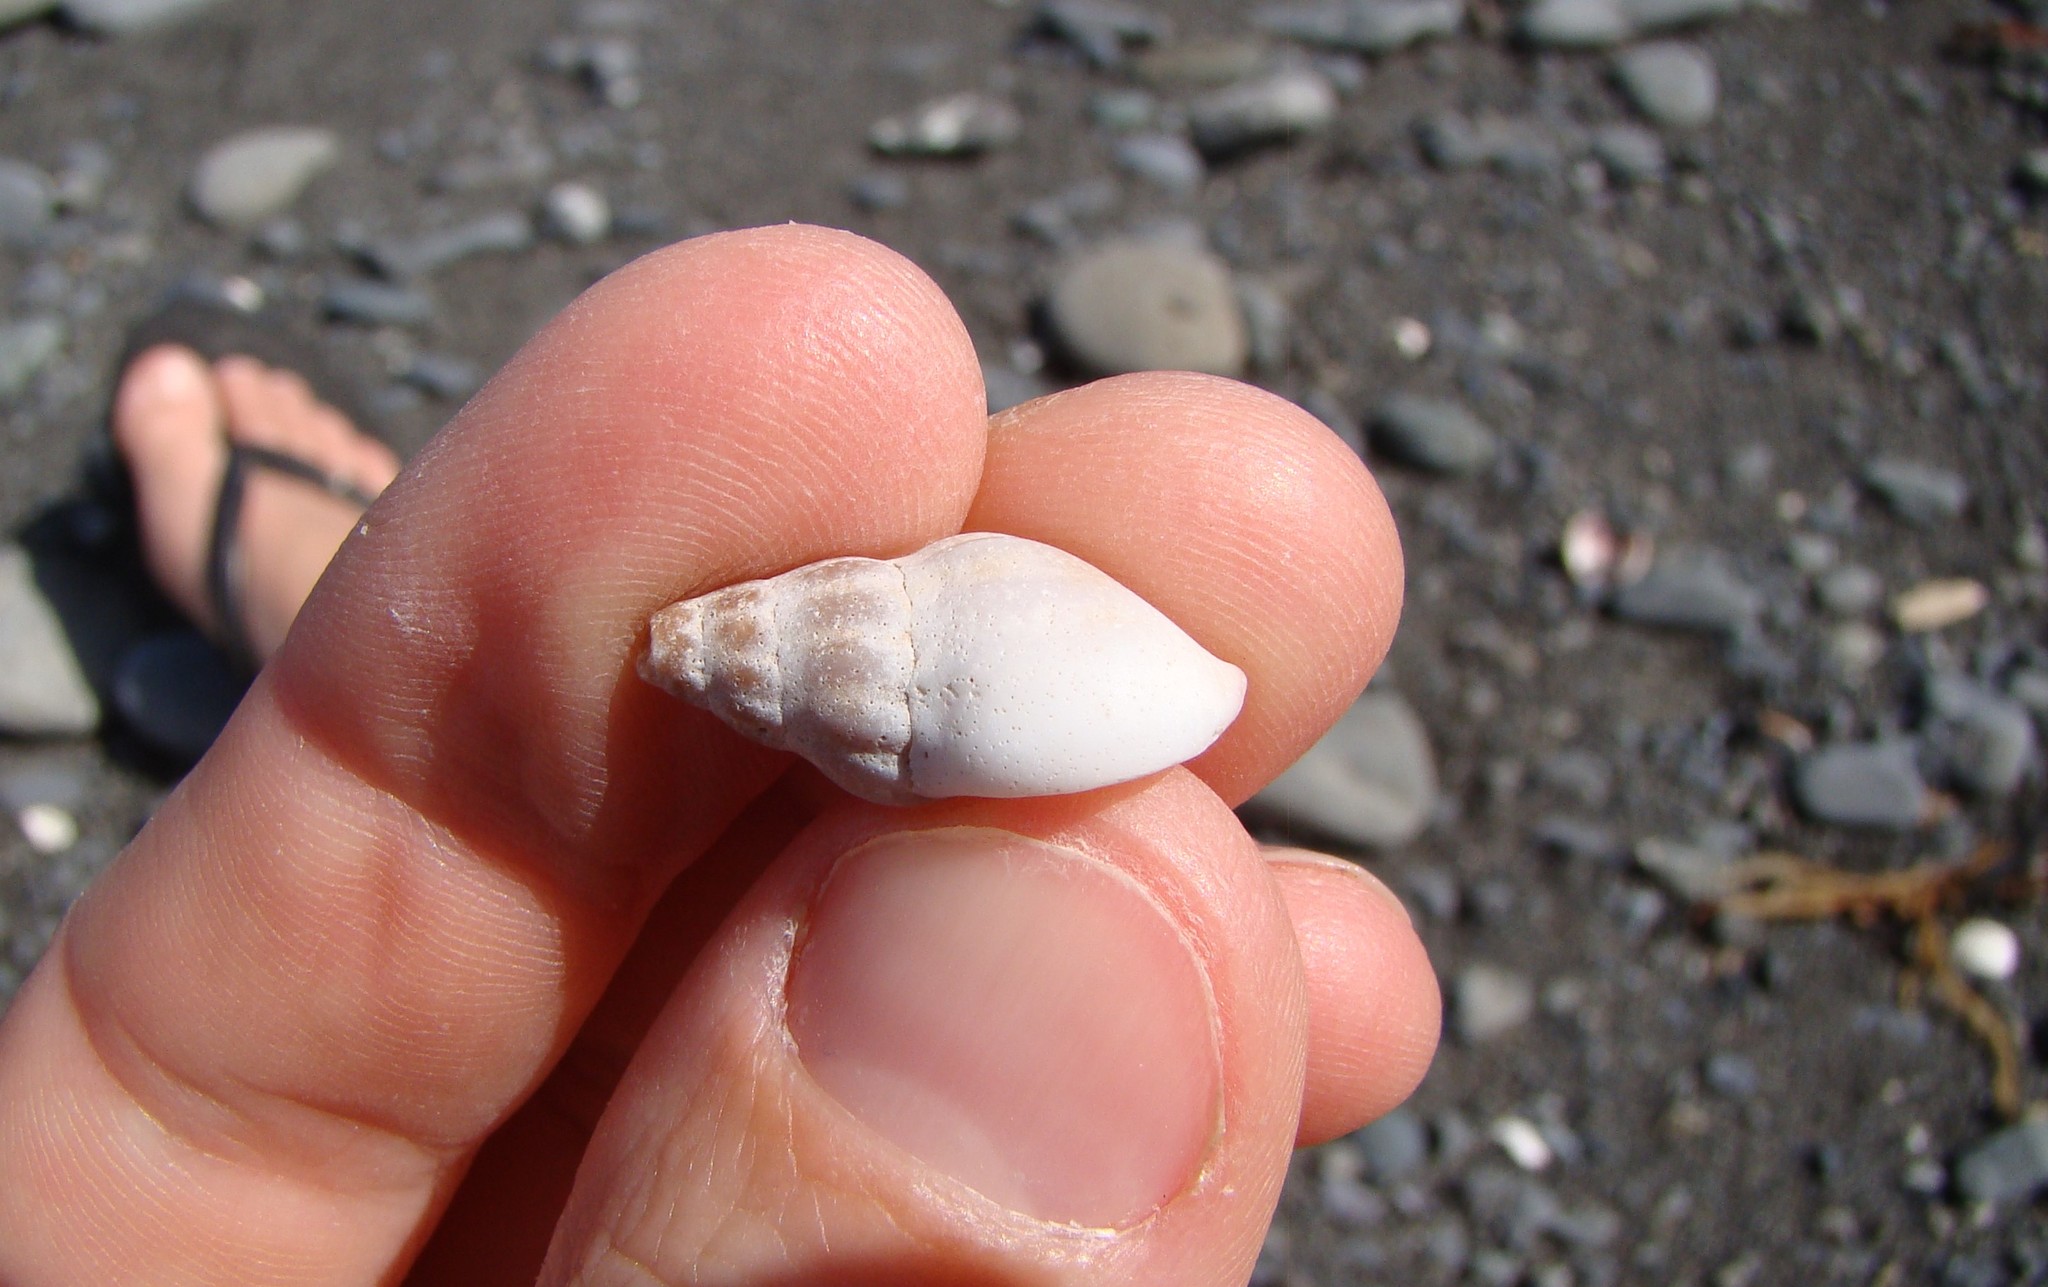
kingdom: Animalia
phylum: Mollusca
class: Gastropoda
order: Neogastropoda
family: Tudiclidae
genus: Buccinulum
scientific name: Buccinulum littorinoides
